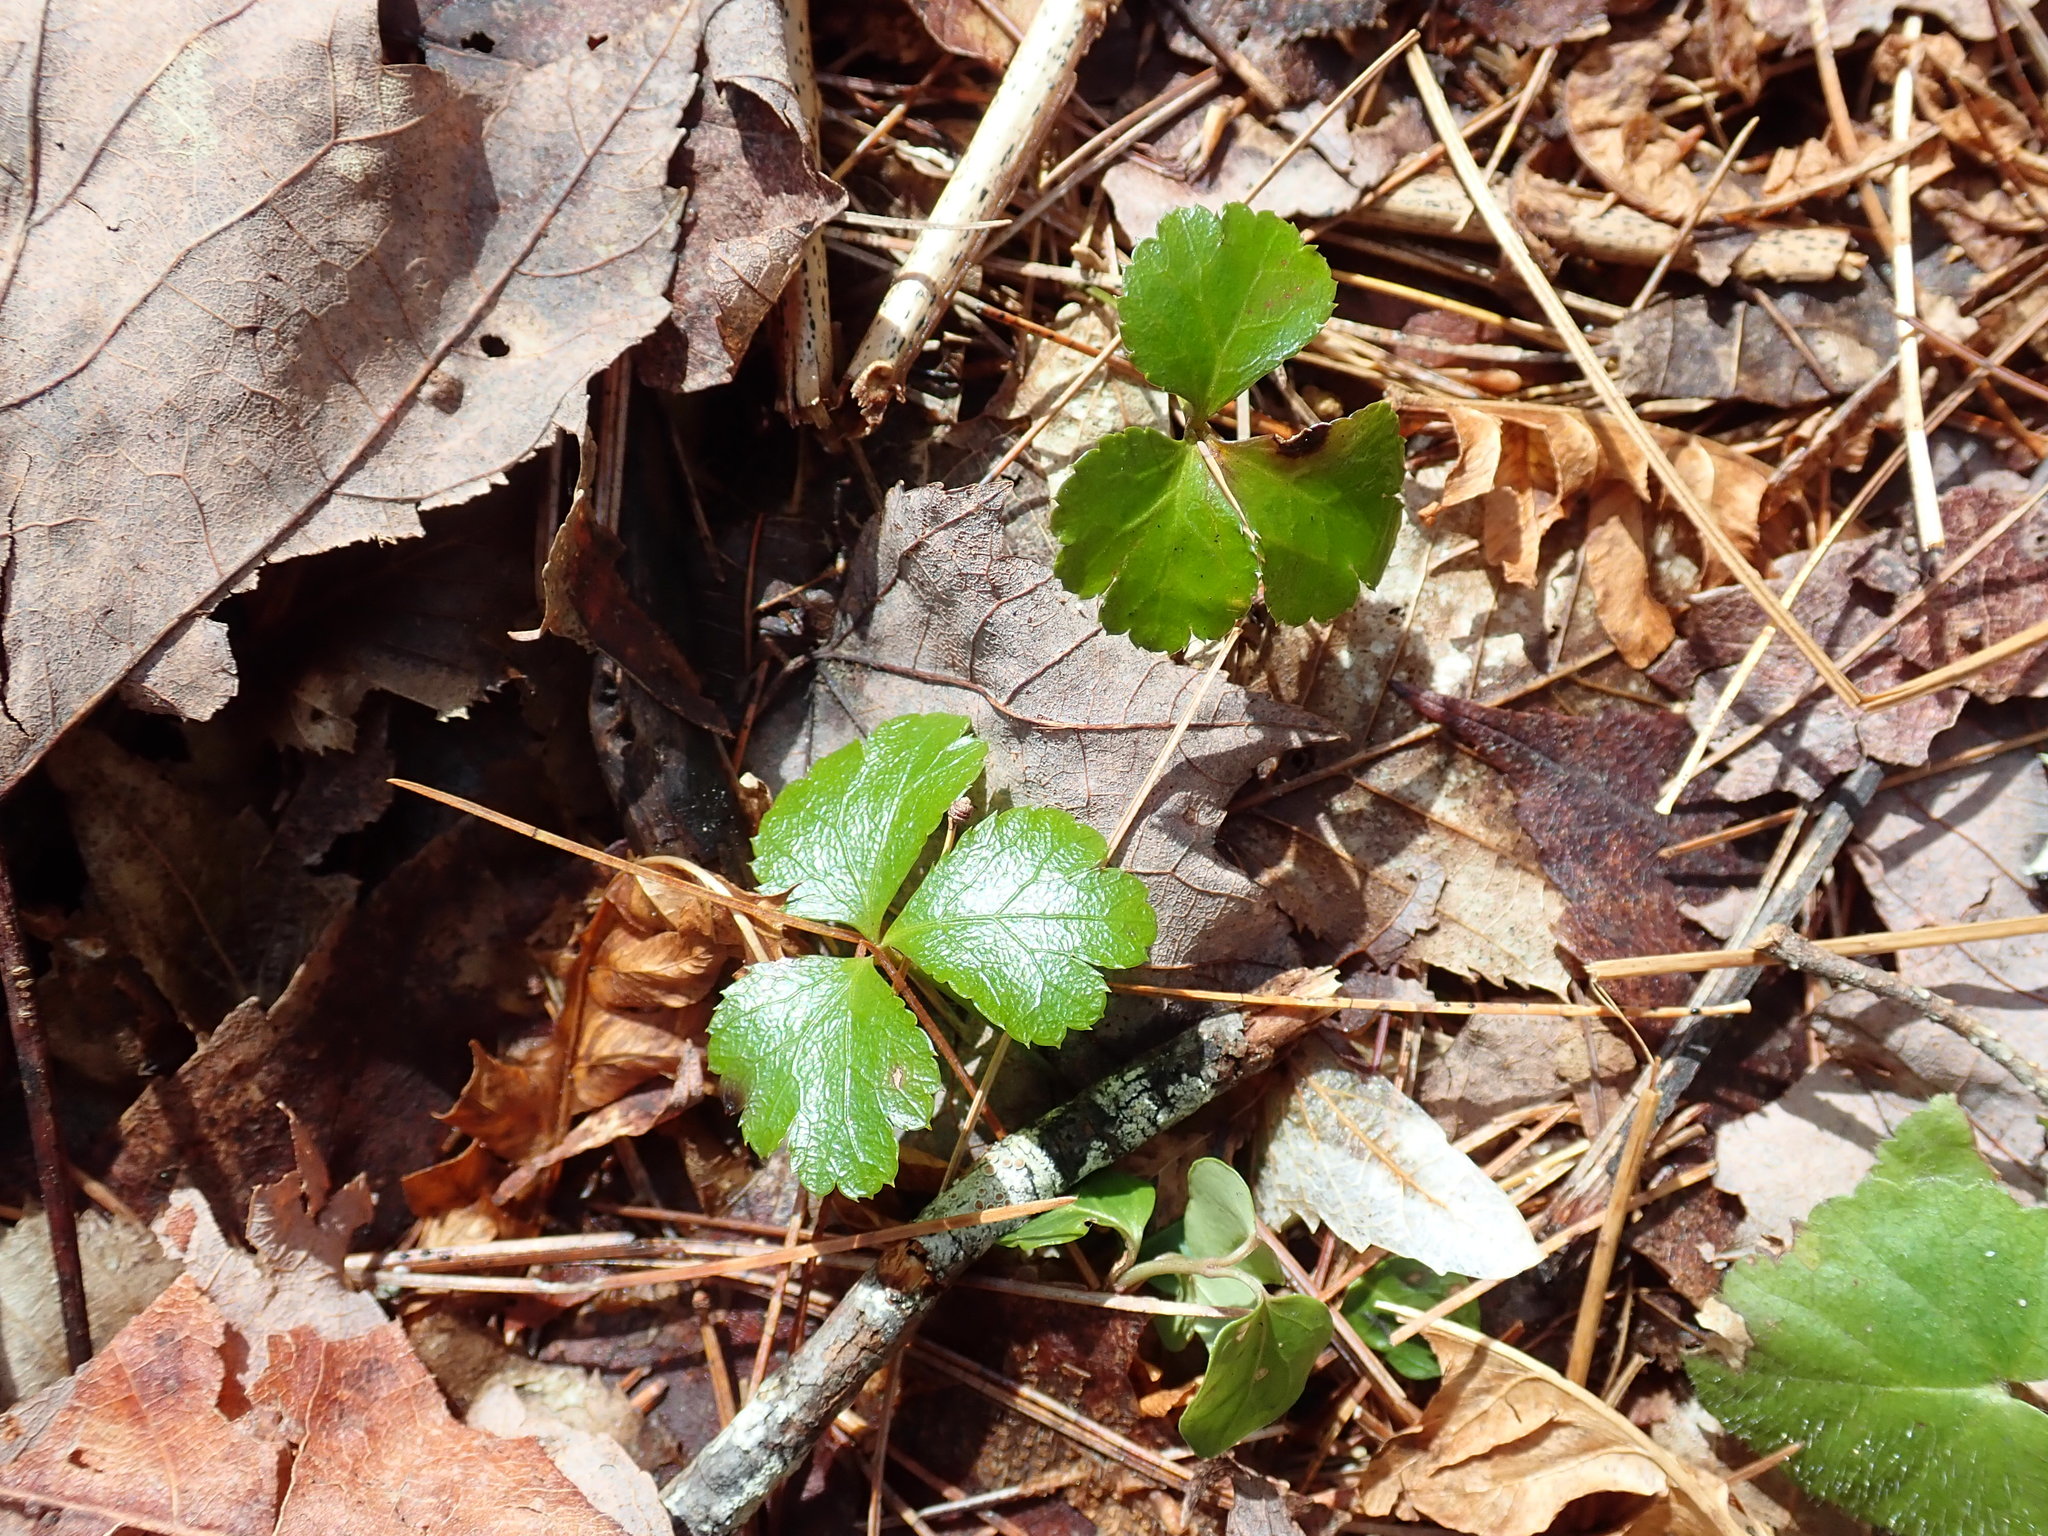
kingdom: Plantae
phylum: Tracheophyta
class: Magnoliopsida
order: Ranunculales
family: Ranunculaceae
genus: Coptis
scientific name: Coptis trifolia
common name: Canker-root
